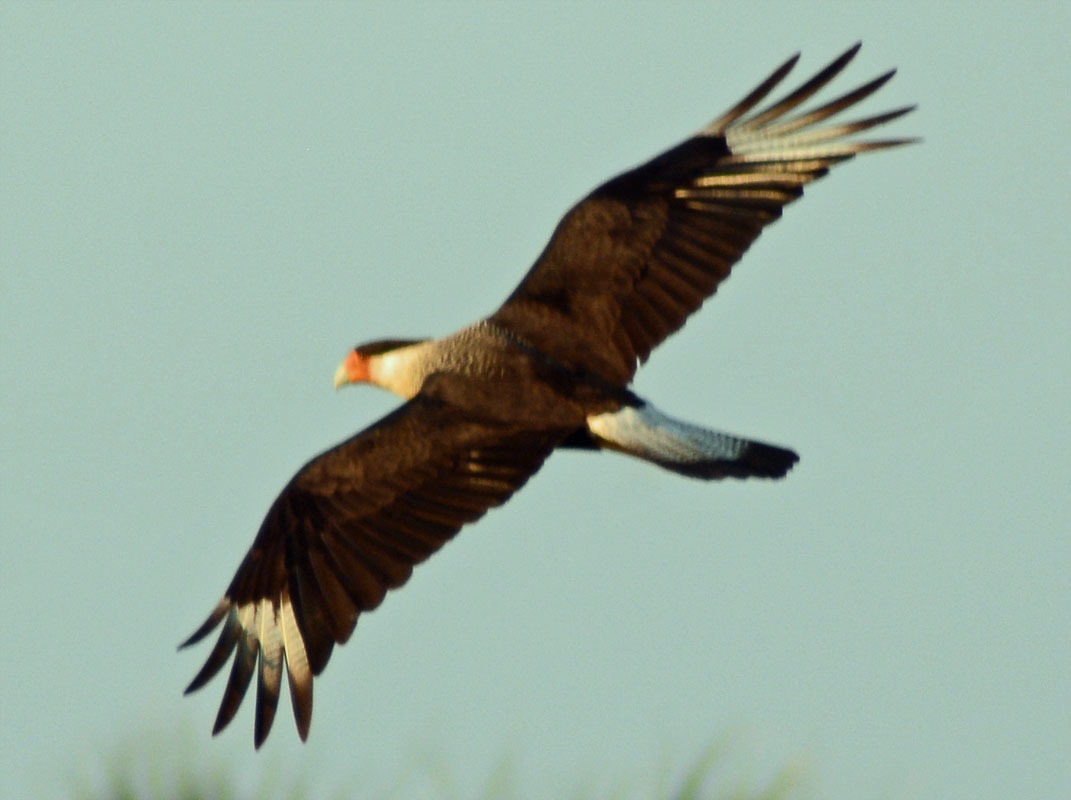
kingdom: Animalia
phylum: Chordata
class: Aves
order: Falconiformes
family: Falconidae
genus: Caracara
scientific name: Caracara plancus
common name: Southern caracara
